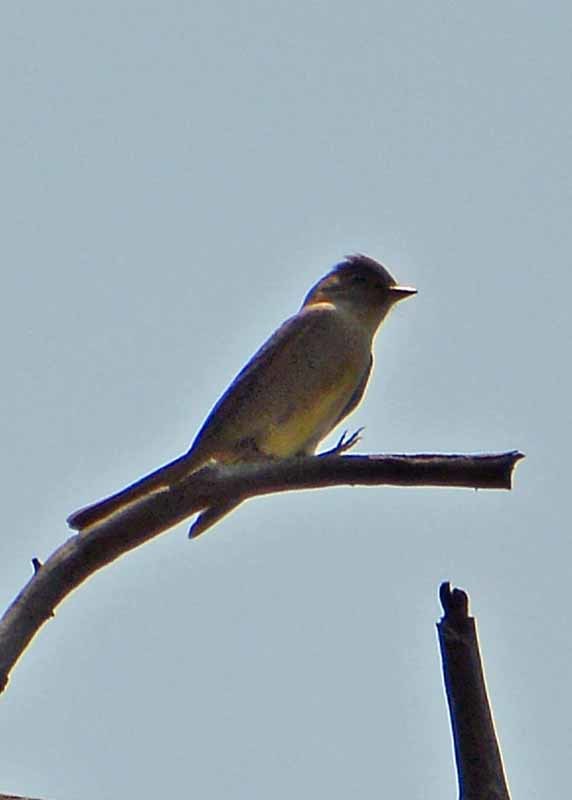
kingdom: Animalia
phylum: Chordata
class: Aves
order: Passeriformes
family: Tyrannidae
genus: Contopus
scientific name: Contopus pertinax
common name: Greater pewee
